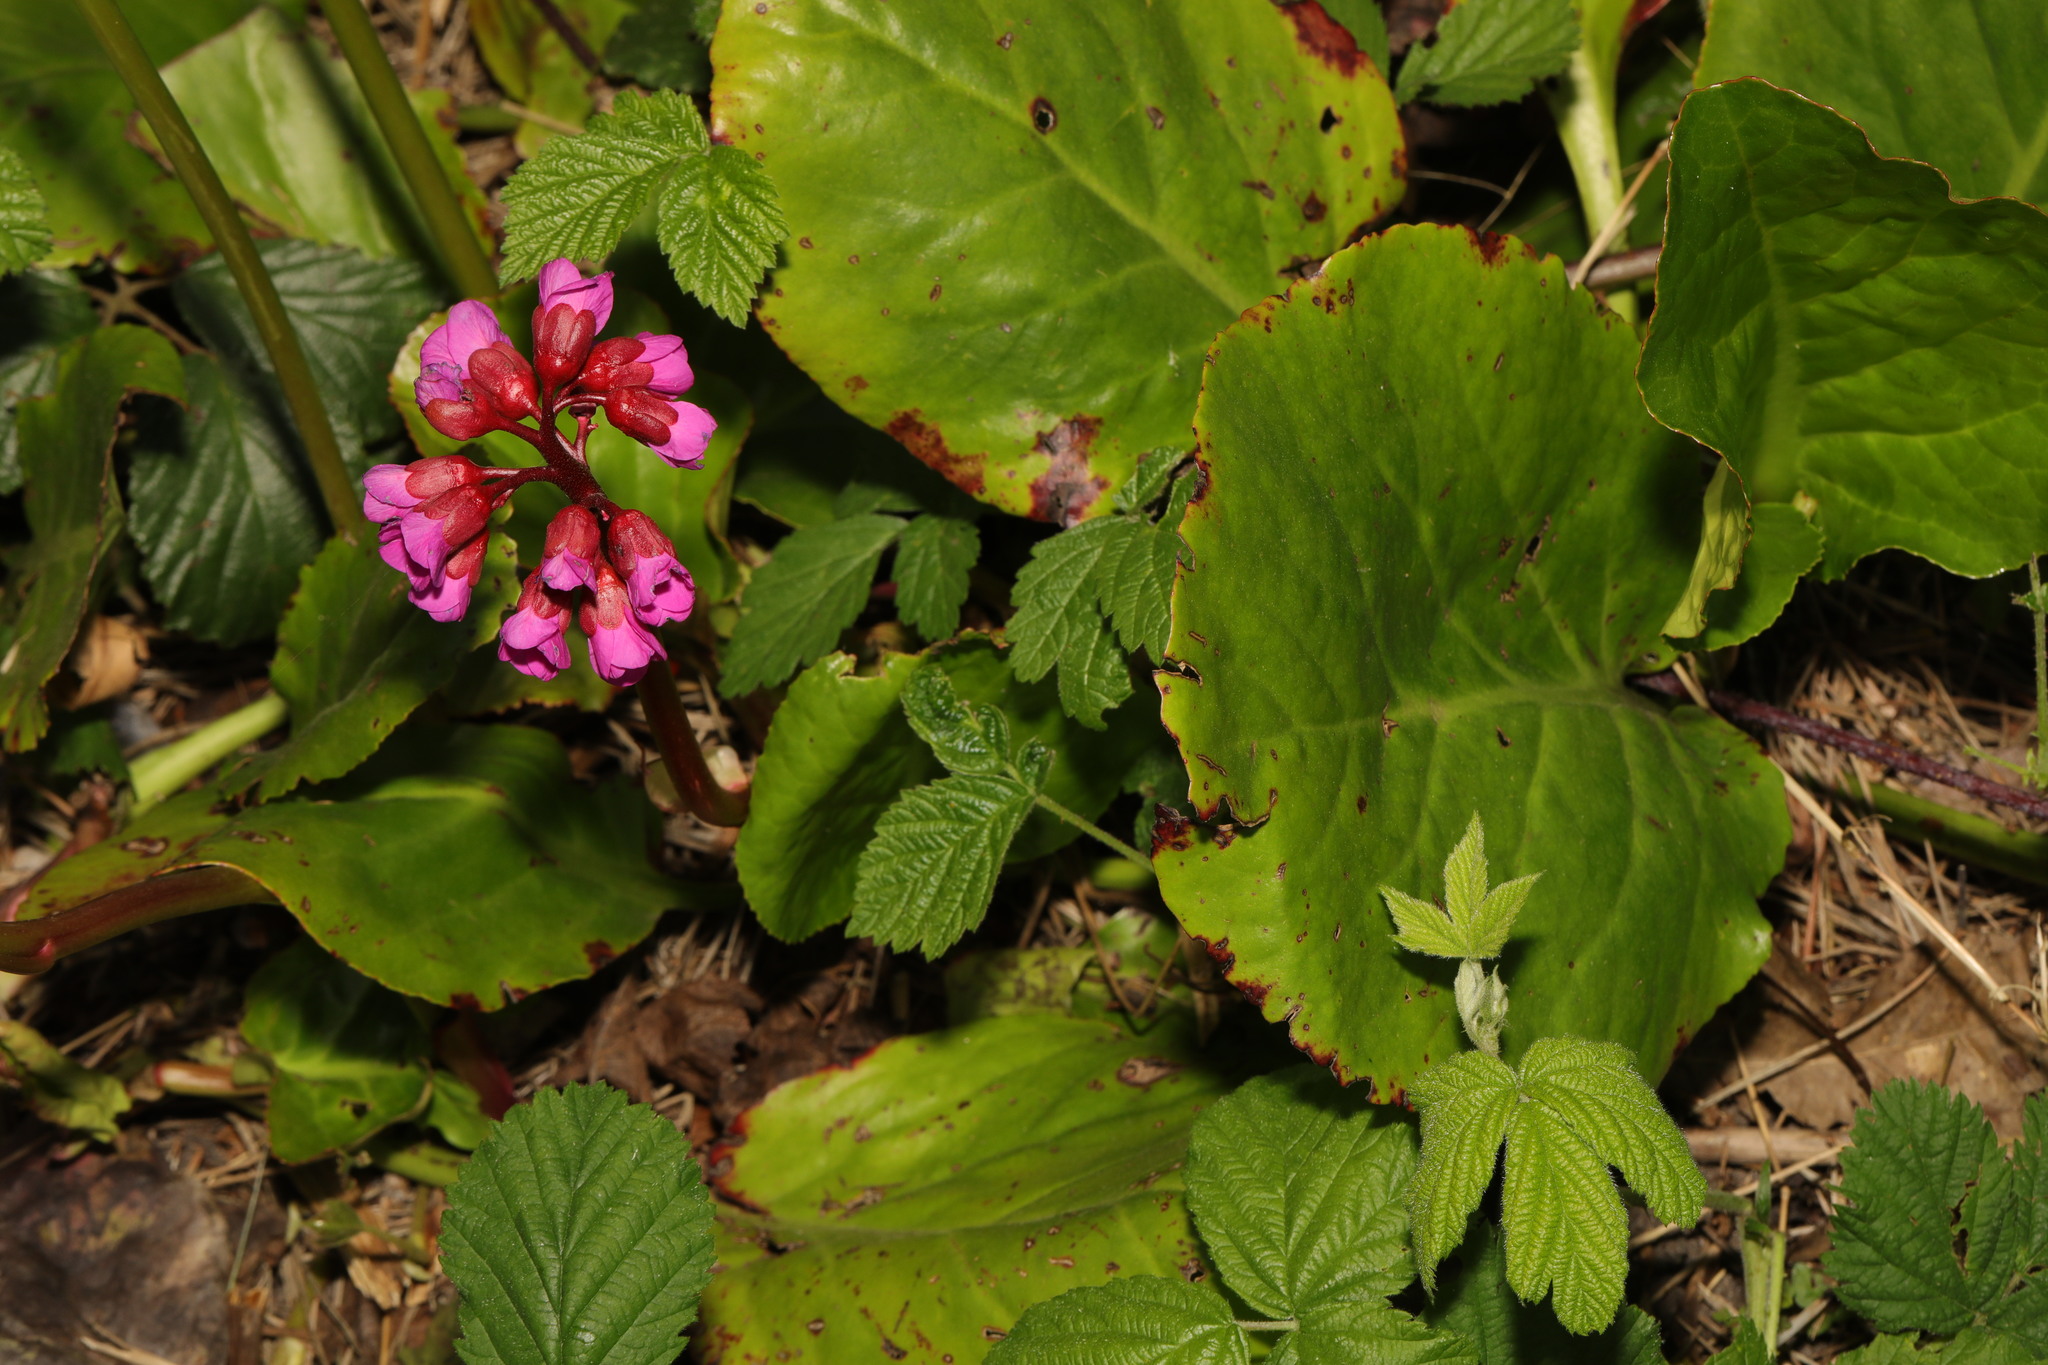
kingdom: Plantae
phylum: Tracheophyta
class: Magnoliopsida
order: Saxifragales
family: Saxifragaceae
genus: Bergenia
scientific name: Bergenia crassifolia
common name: Elephant-ears
